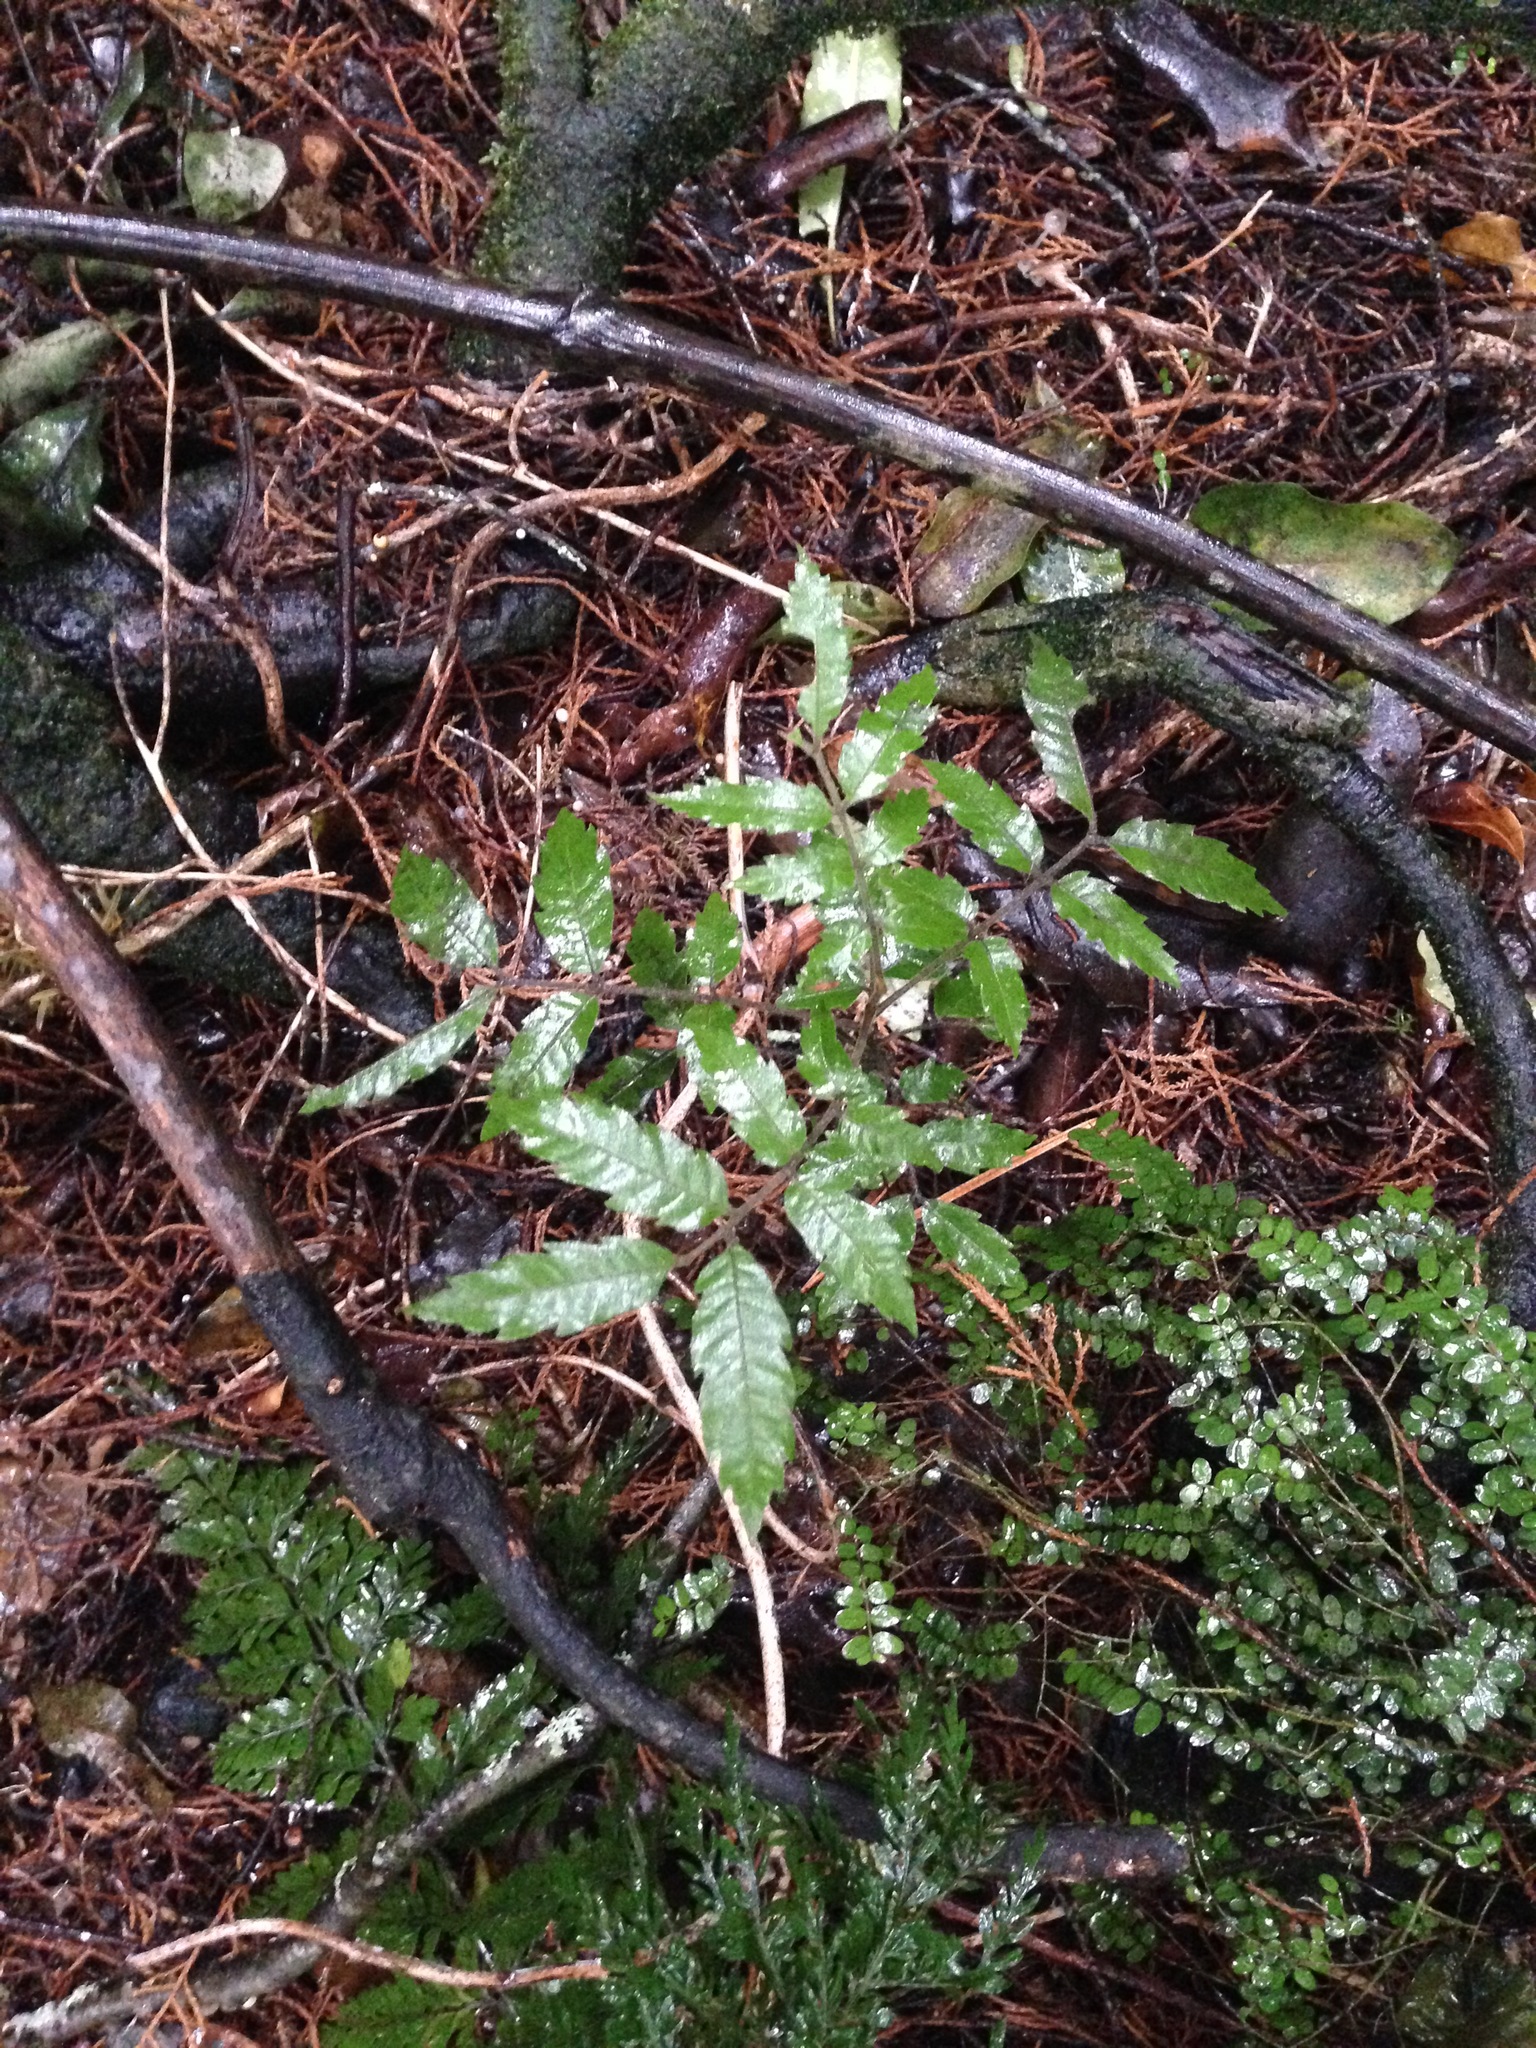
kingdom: Plantae
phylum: Tracheophyta
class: Magnoliopsida
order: Sapindales
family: Sapindaceae
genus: Alectryon
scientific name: Alectryon excelsus
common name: Three kings titoki
